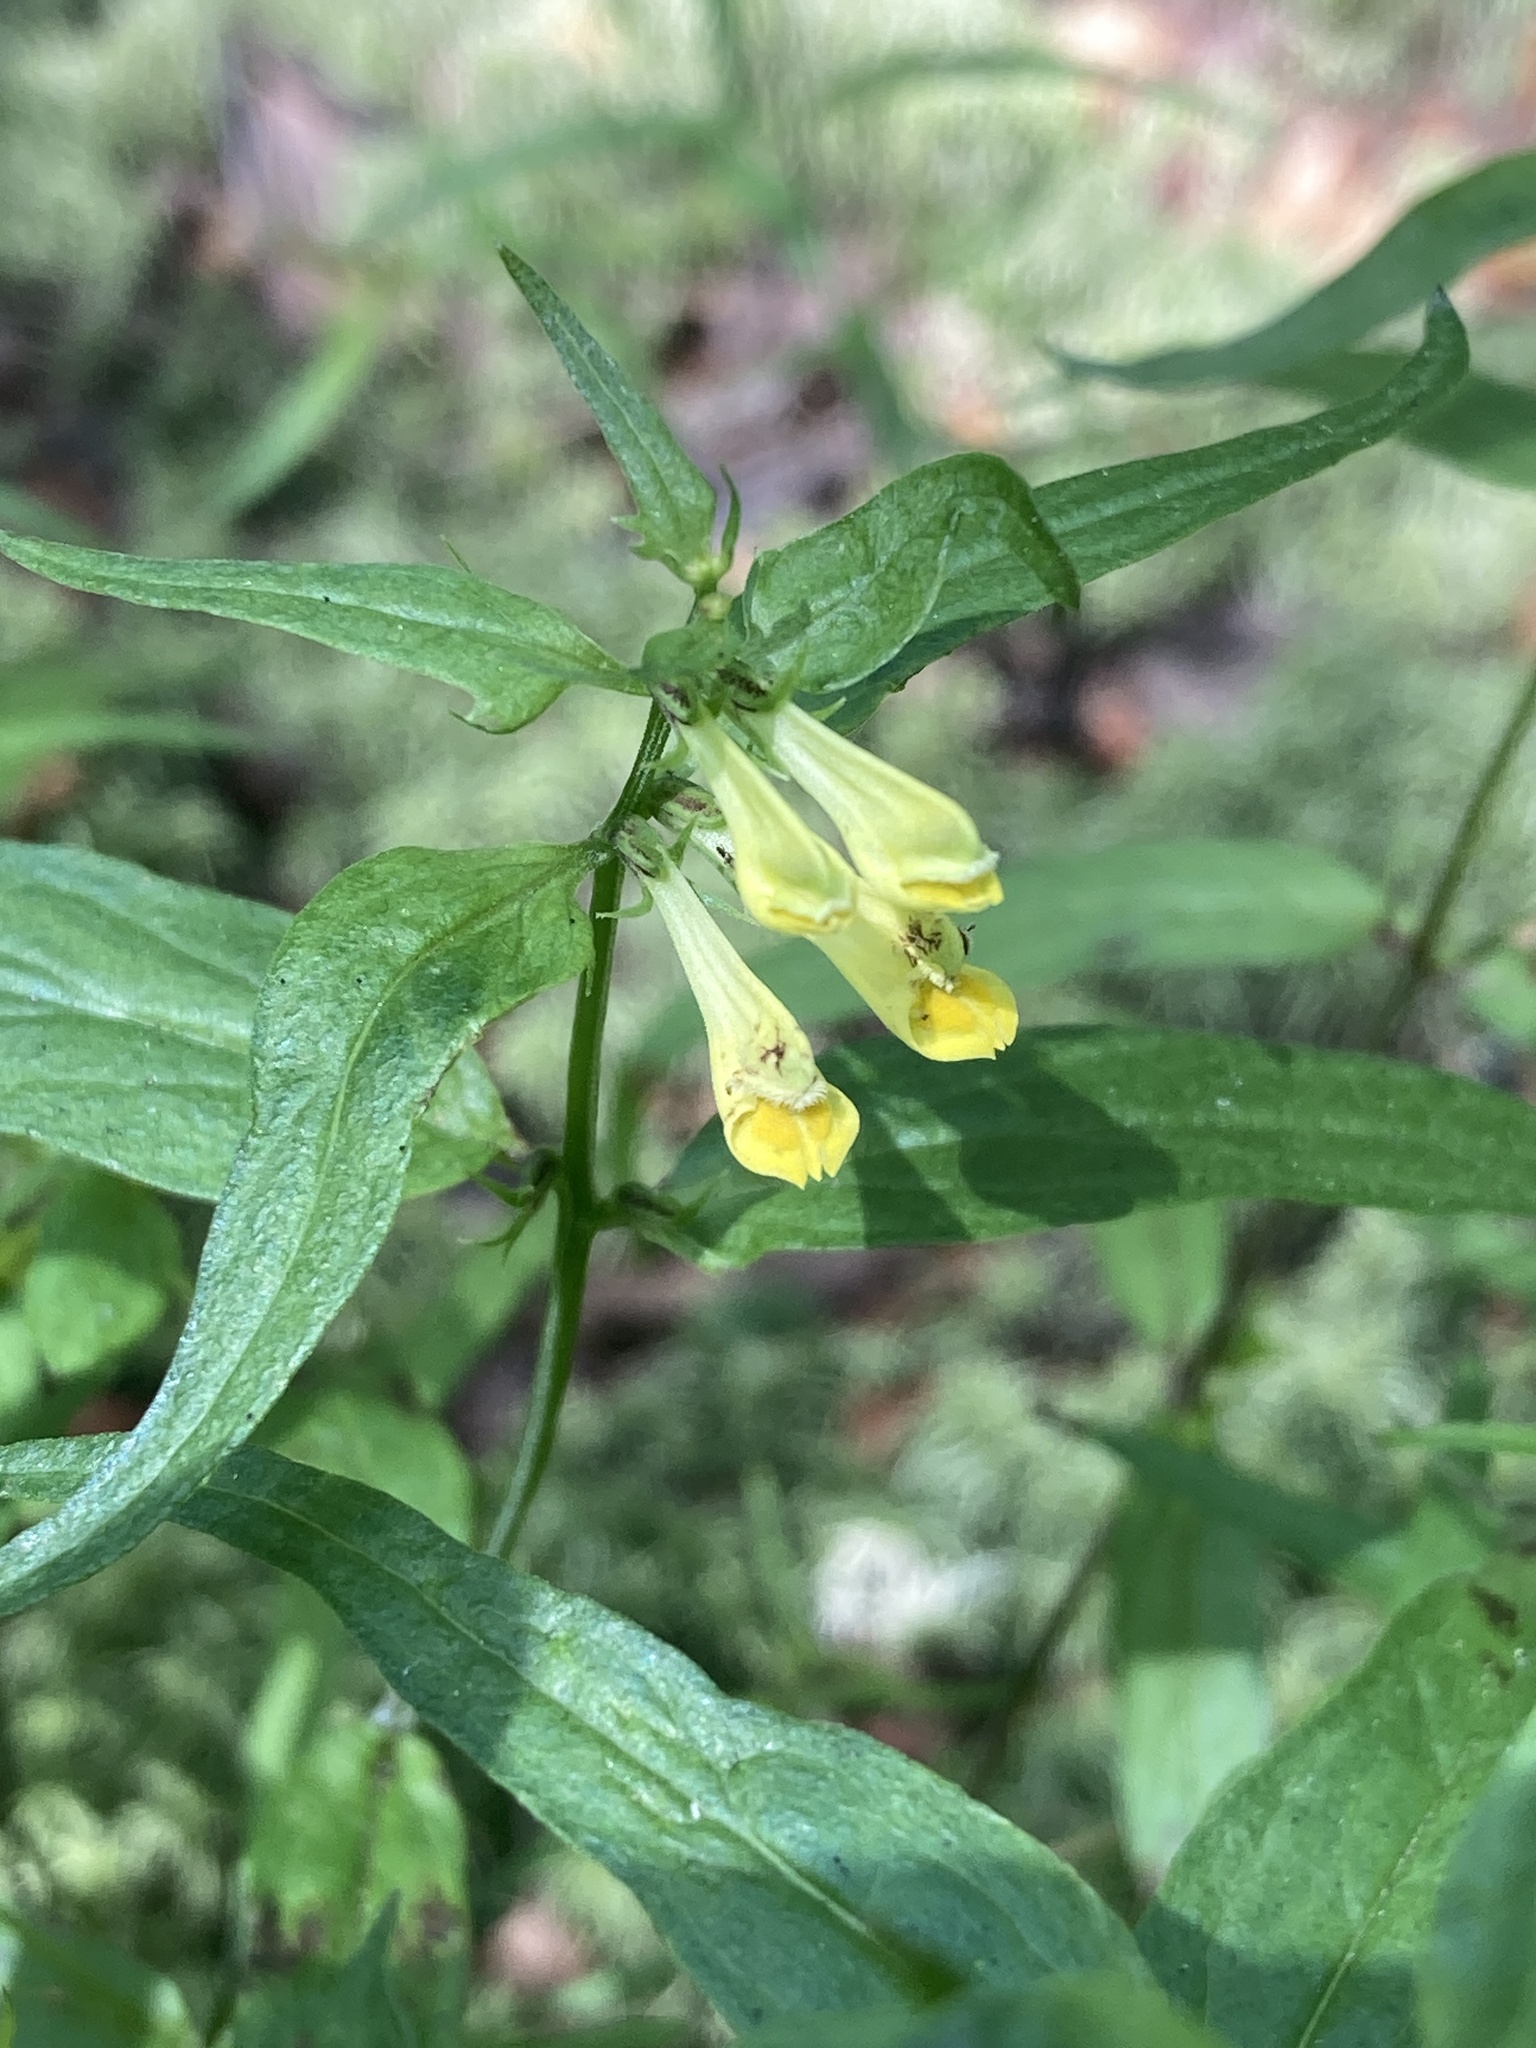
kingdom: Plantae
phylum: Tracheophyta
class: Magnoliopsida
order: Lamiales
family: Orobanchaceae
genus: Melampyrum
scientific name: Melampyrum pratense
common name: Common cow-wheat
